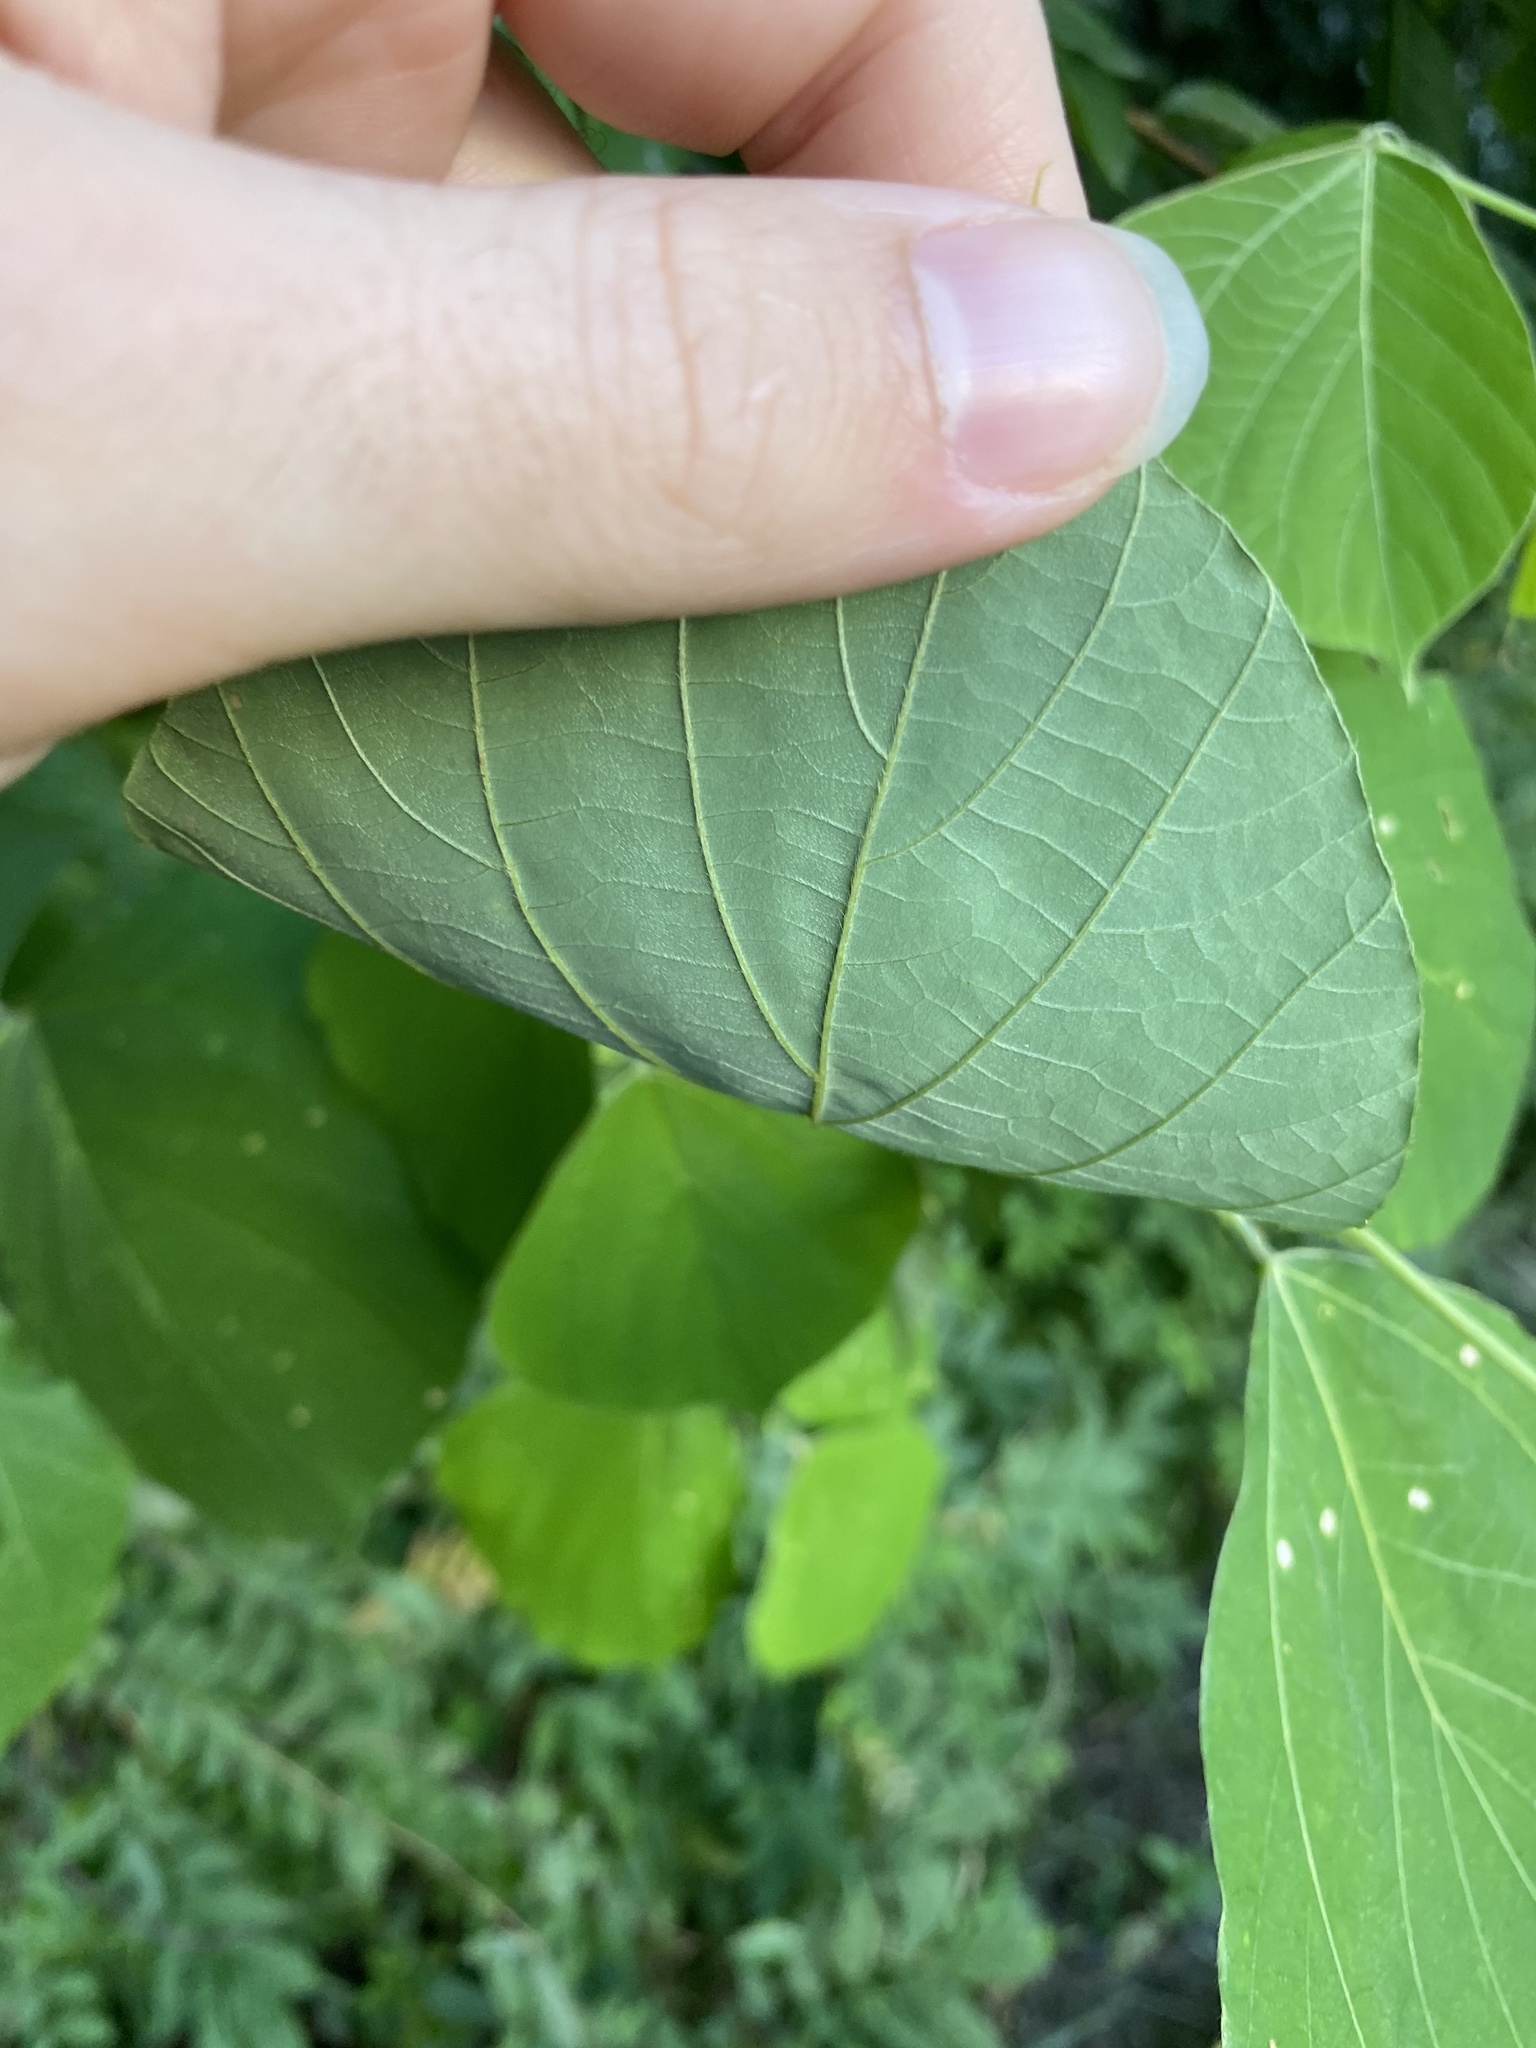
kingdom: Plantae
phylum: Tracheophyta
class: Magnoliopsida
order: Fabales
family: Fabaceae
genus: Pueraria
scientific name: Pueraria montana
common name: Kudzu
